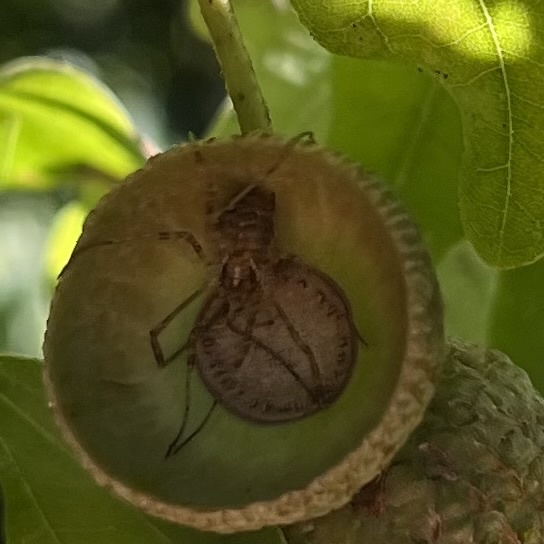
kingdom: Animalia
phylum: Arthropoda
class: Arachnida
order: Opiliones
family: Phalangiidae
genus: Paroligolophus
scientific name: Paroligolophus agrestis
